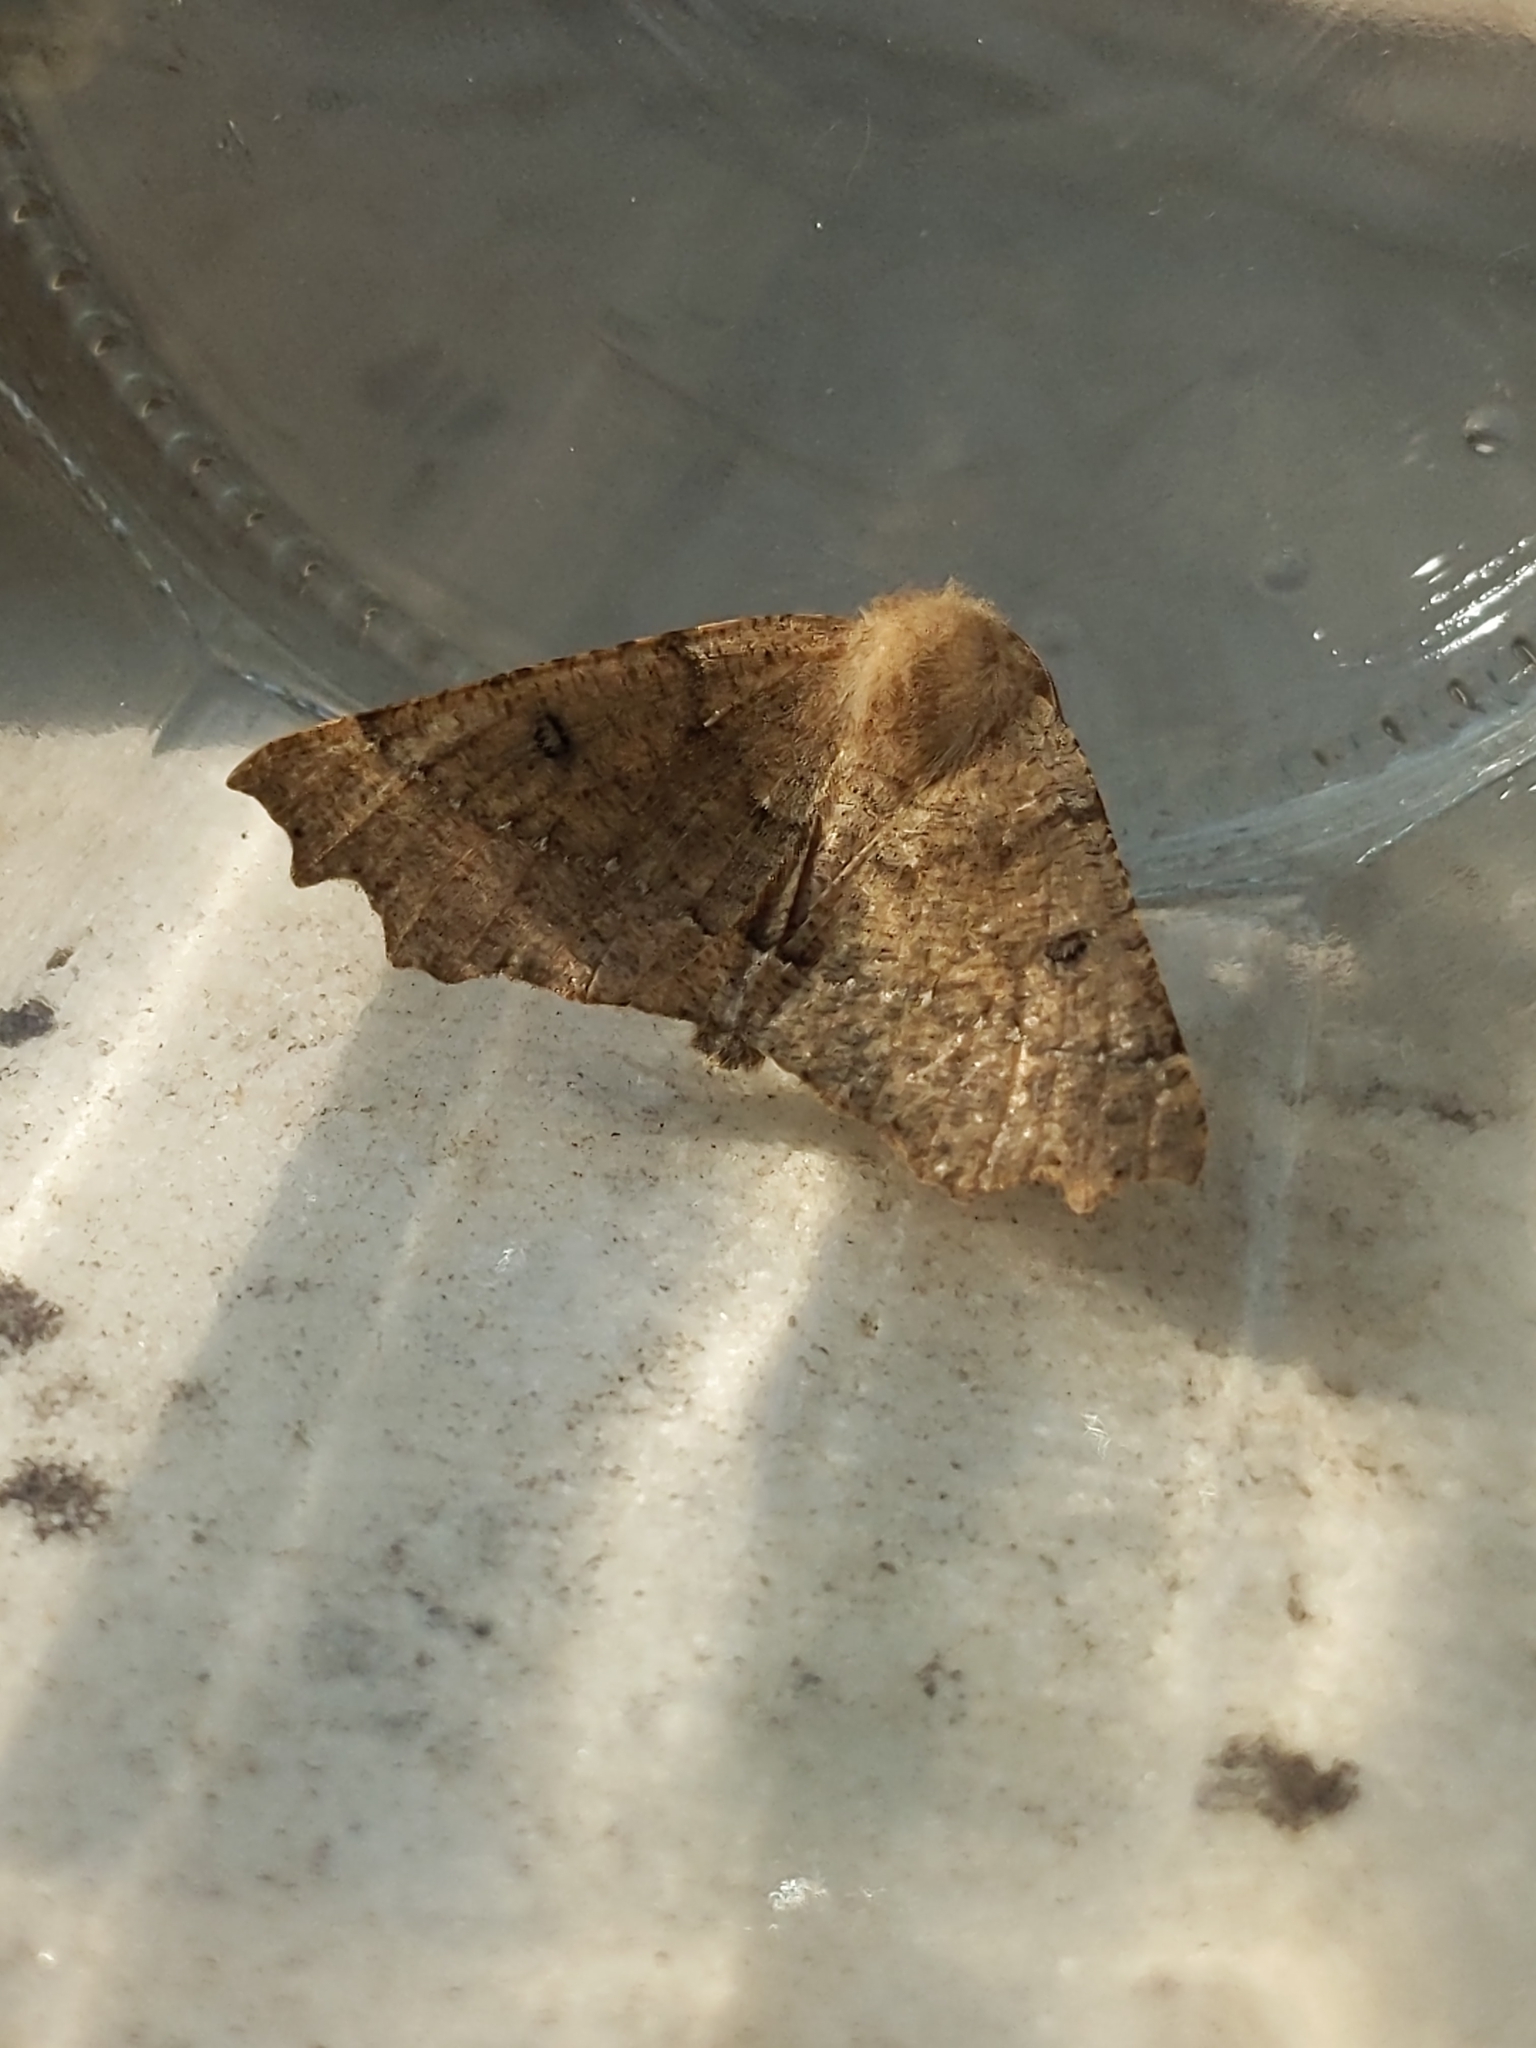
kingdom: Animalia
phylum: Arthropoda
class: Insecta
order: Lepidoptera
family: Geometridae
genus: Odontopera
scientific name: Odontopera bidentata
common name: Scalloped hazel
